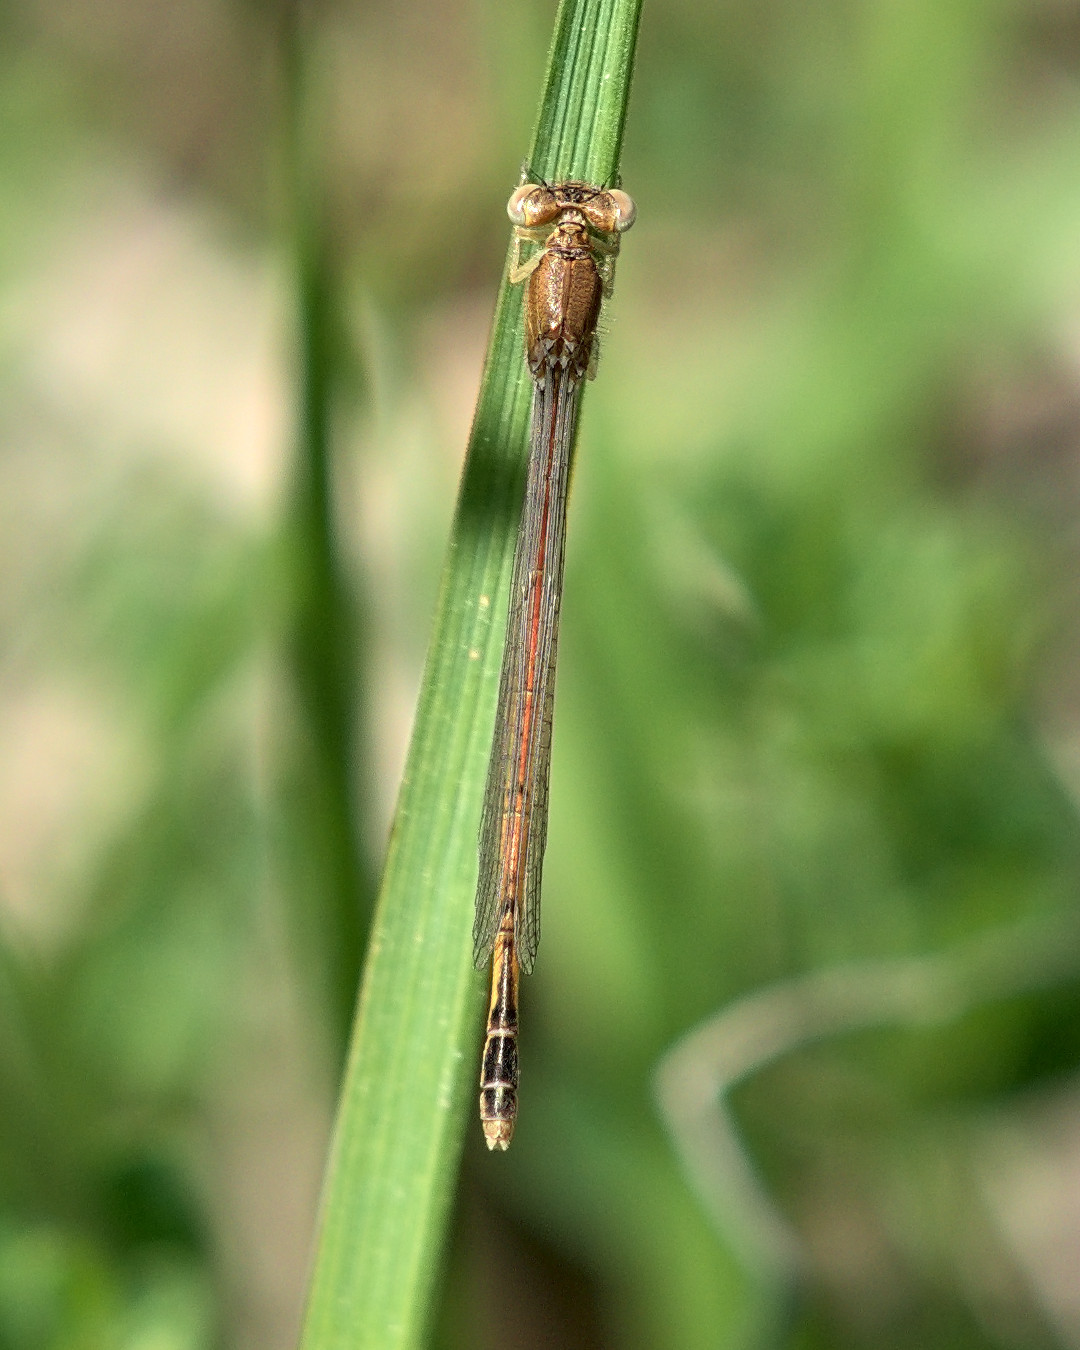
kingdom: Animalia
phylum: Arthropoda
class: Insecta
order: Odonata
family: Coenagrionidae
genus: Amphiagrion
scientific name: Amphiagrion saucium
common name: Eastern red damsel
